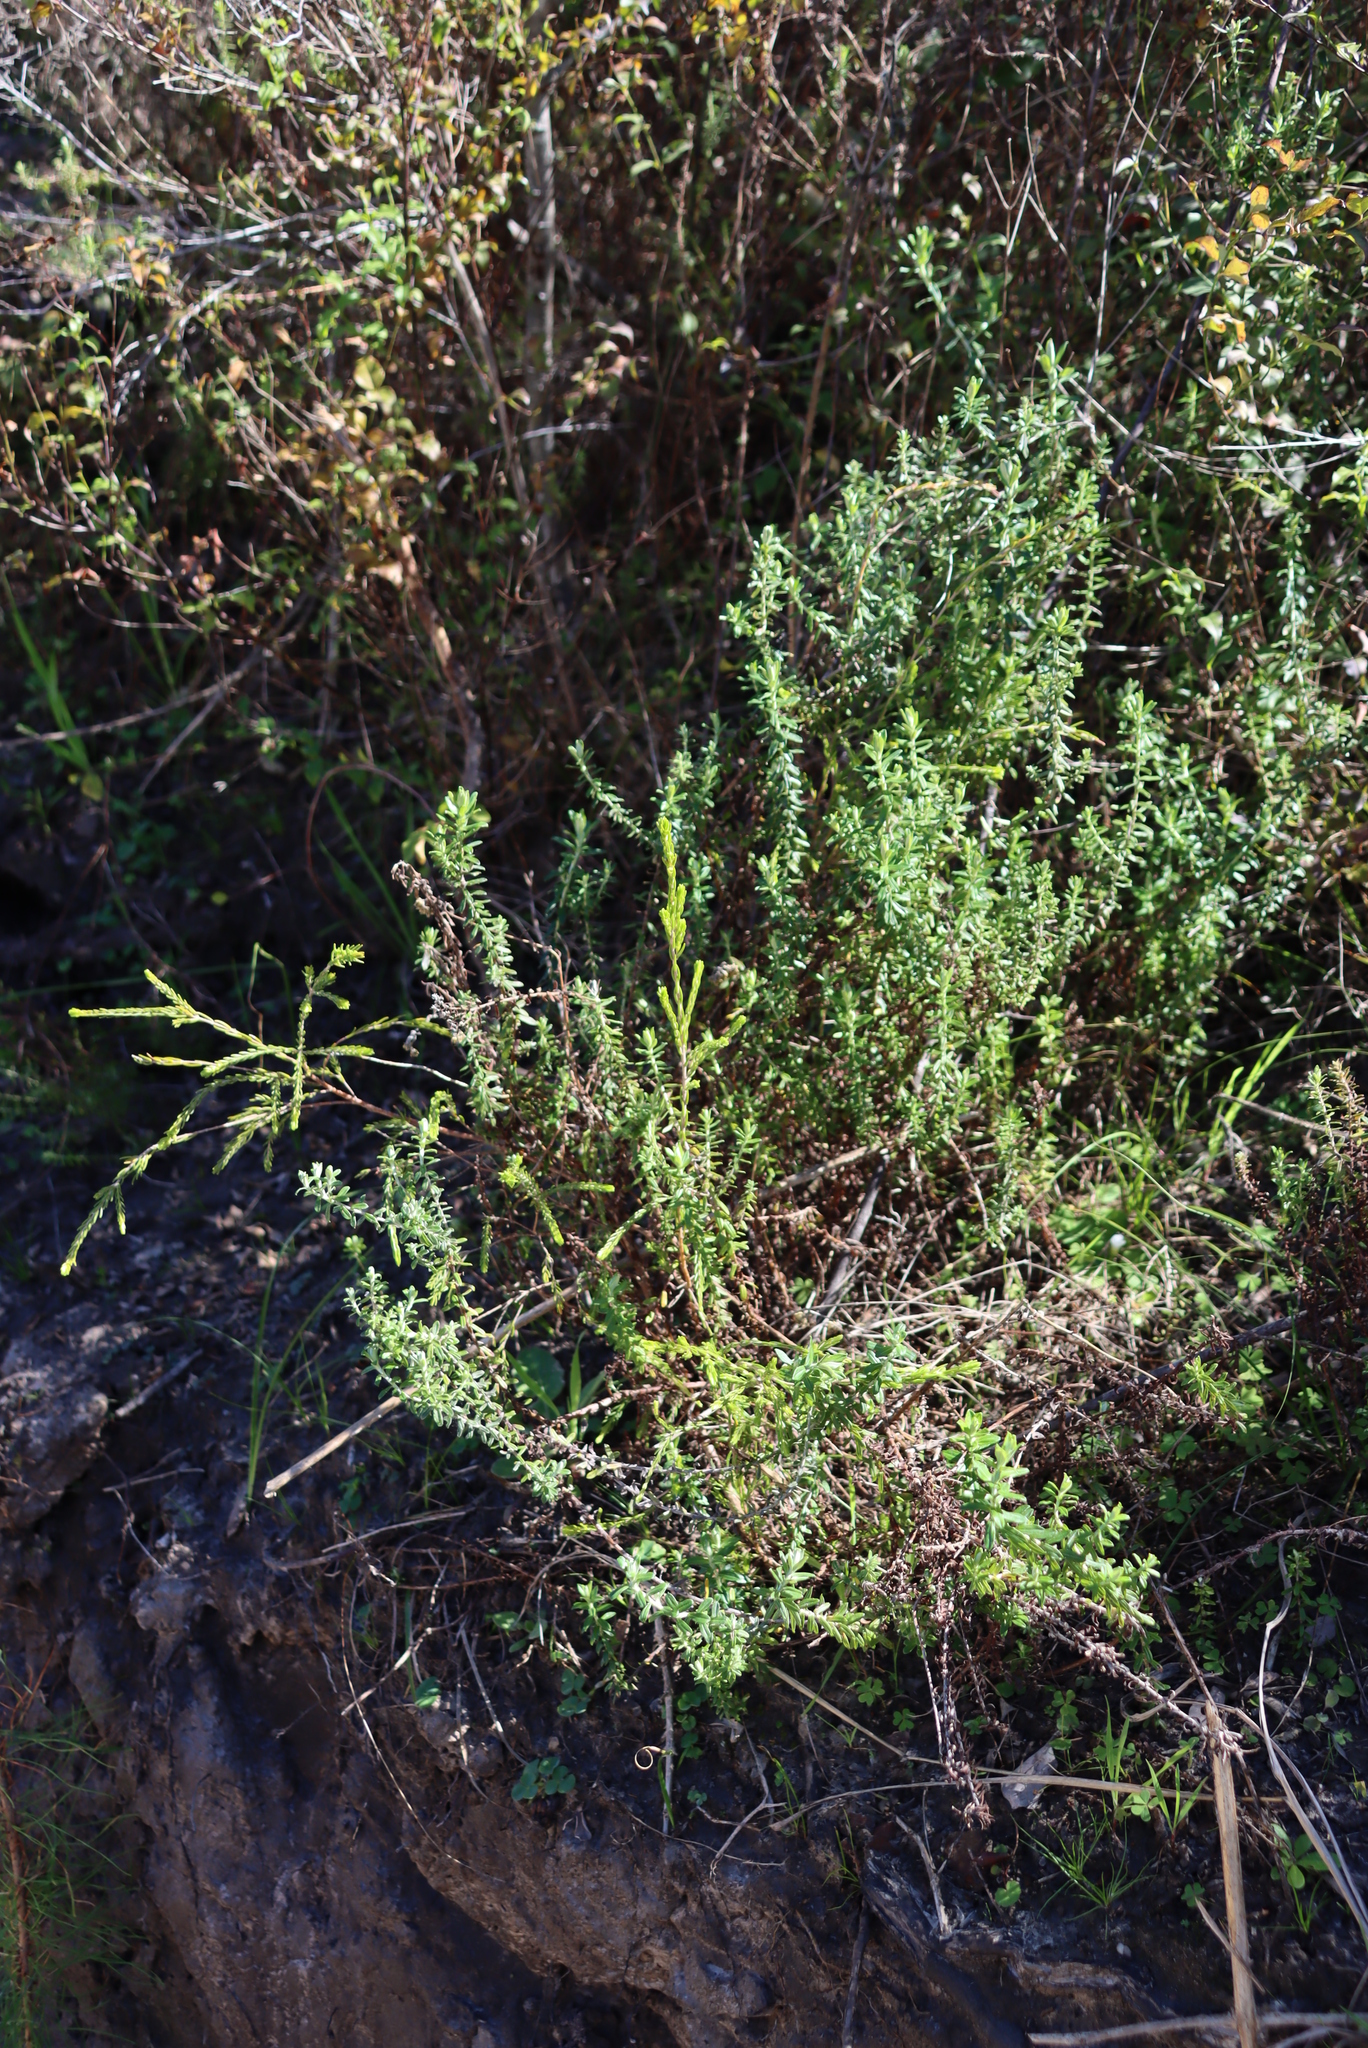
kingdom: Plantae
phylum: Tracheophyta
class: Magnoliopsida
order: Malvales
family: Thymelaeaceae
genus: Passerina
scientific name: Passerina falcifolia
